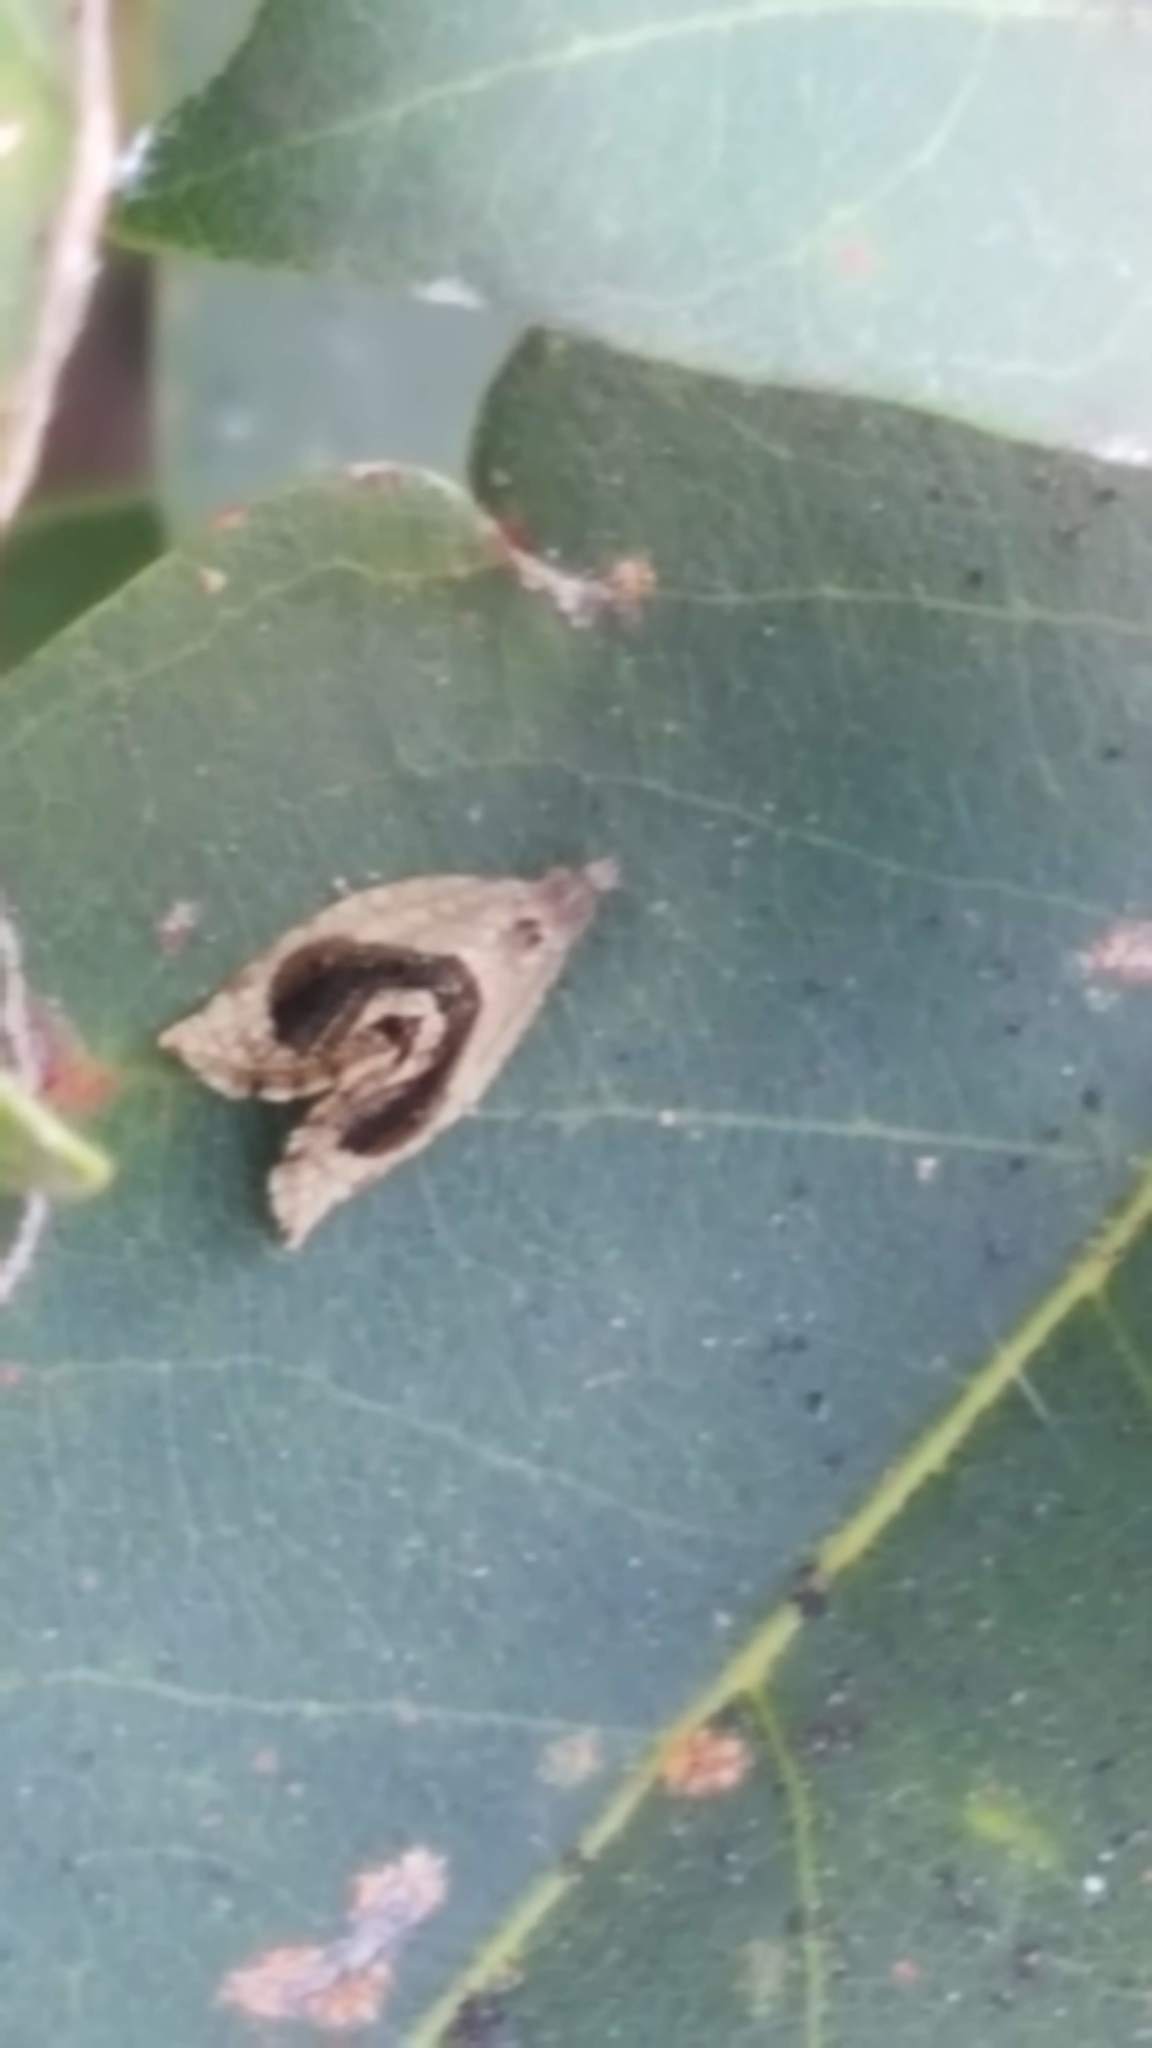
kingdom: Animalia
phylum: Arthropoda
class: Insecta
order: Lepidoptera
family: Tortricidae
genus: Acroceuthes
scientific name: Acroceuthes metaxanthana
